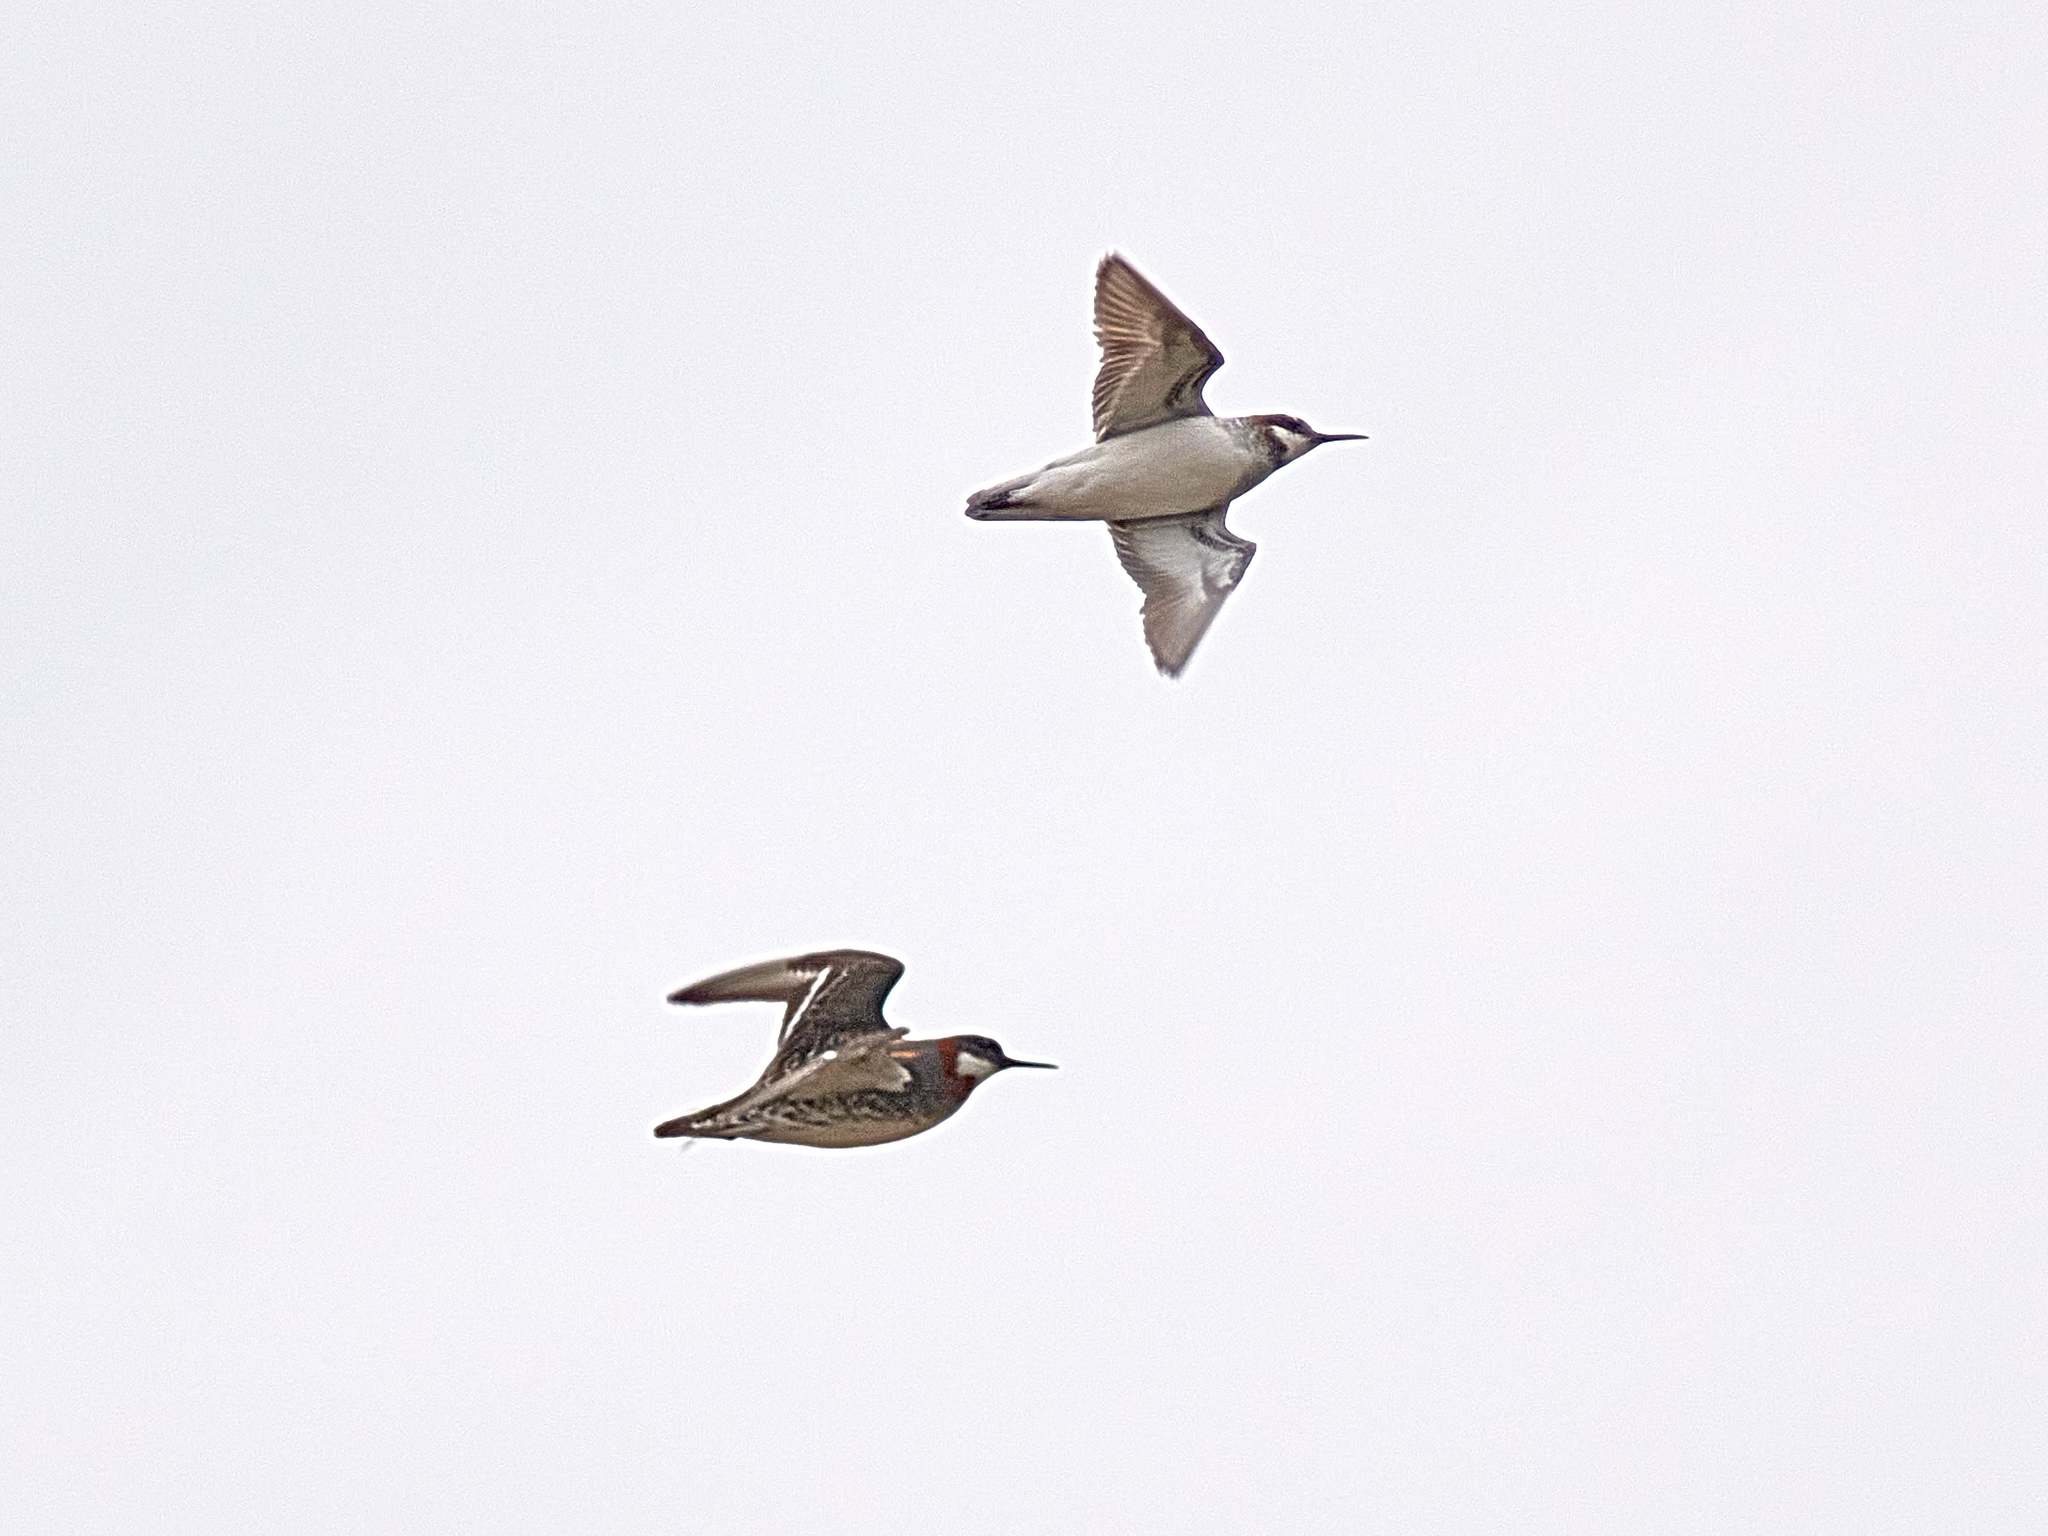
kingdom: Animalia
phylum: Chordata
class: Aves
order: Charadriiformes
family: Scolopacidae
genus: Phalaropus
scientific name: Phalaropus lobatus
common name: Red-necked phalarope
